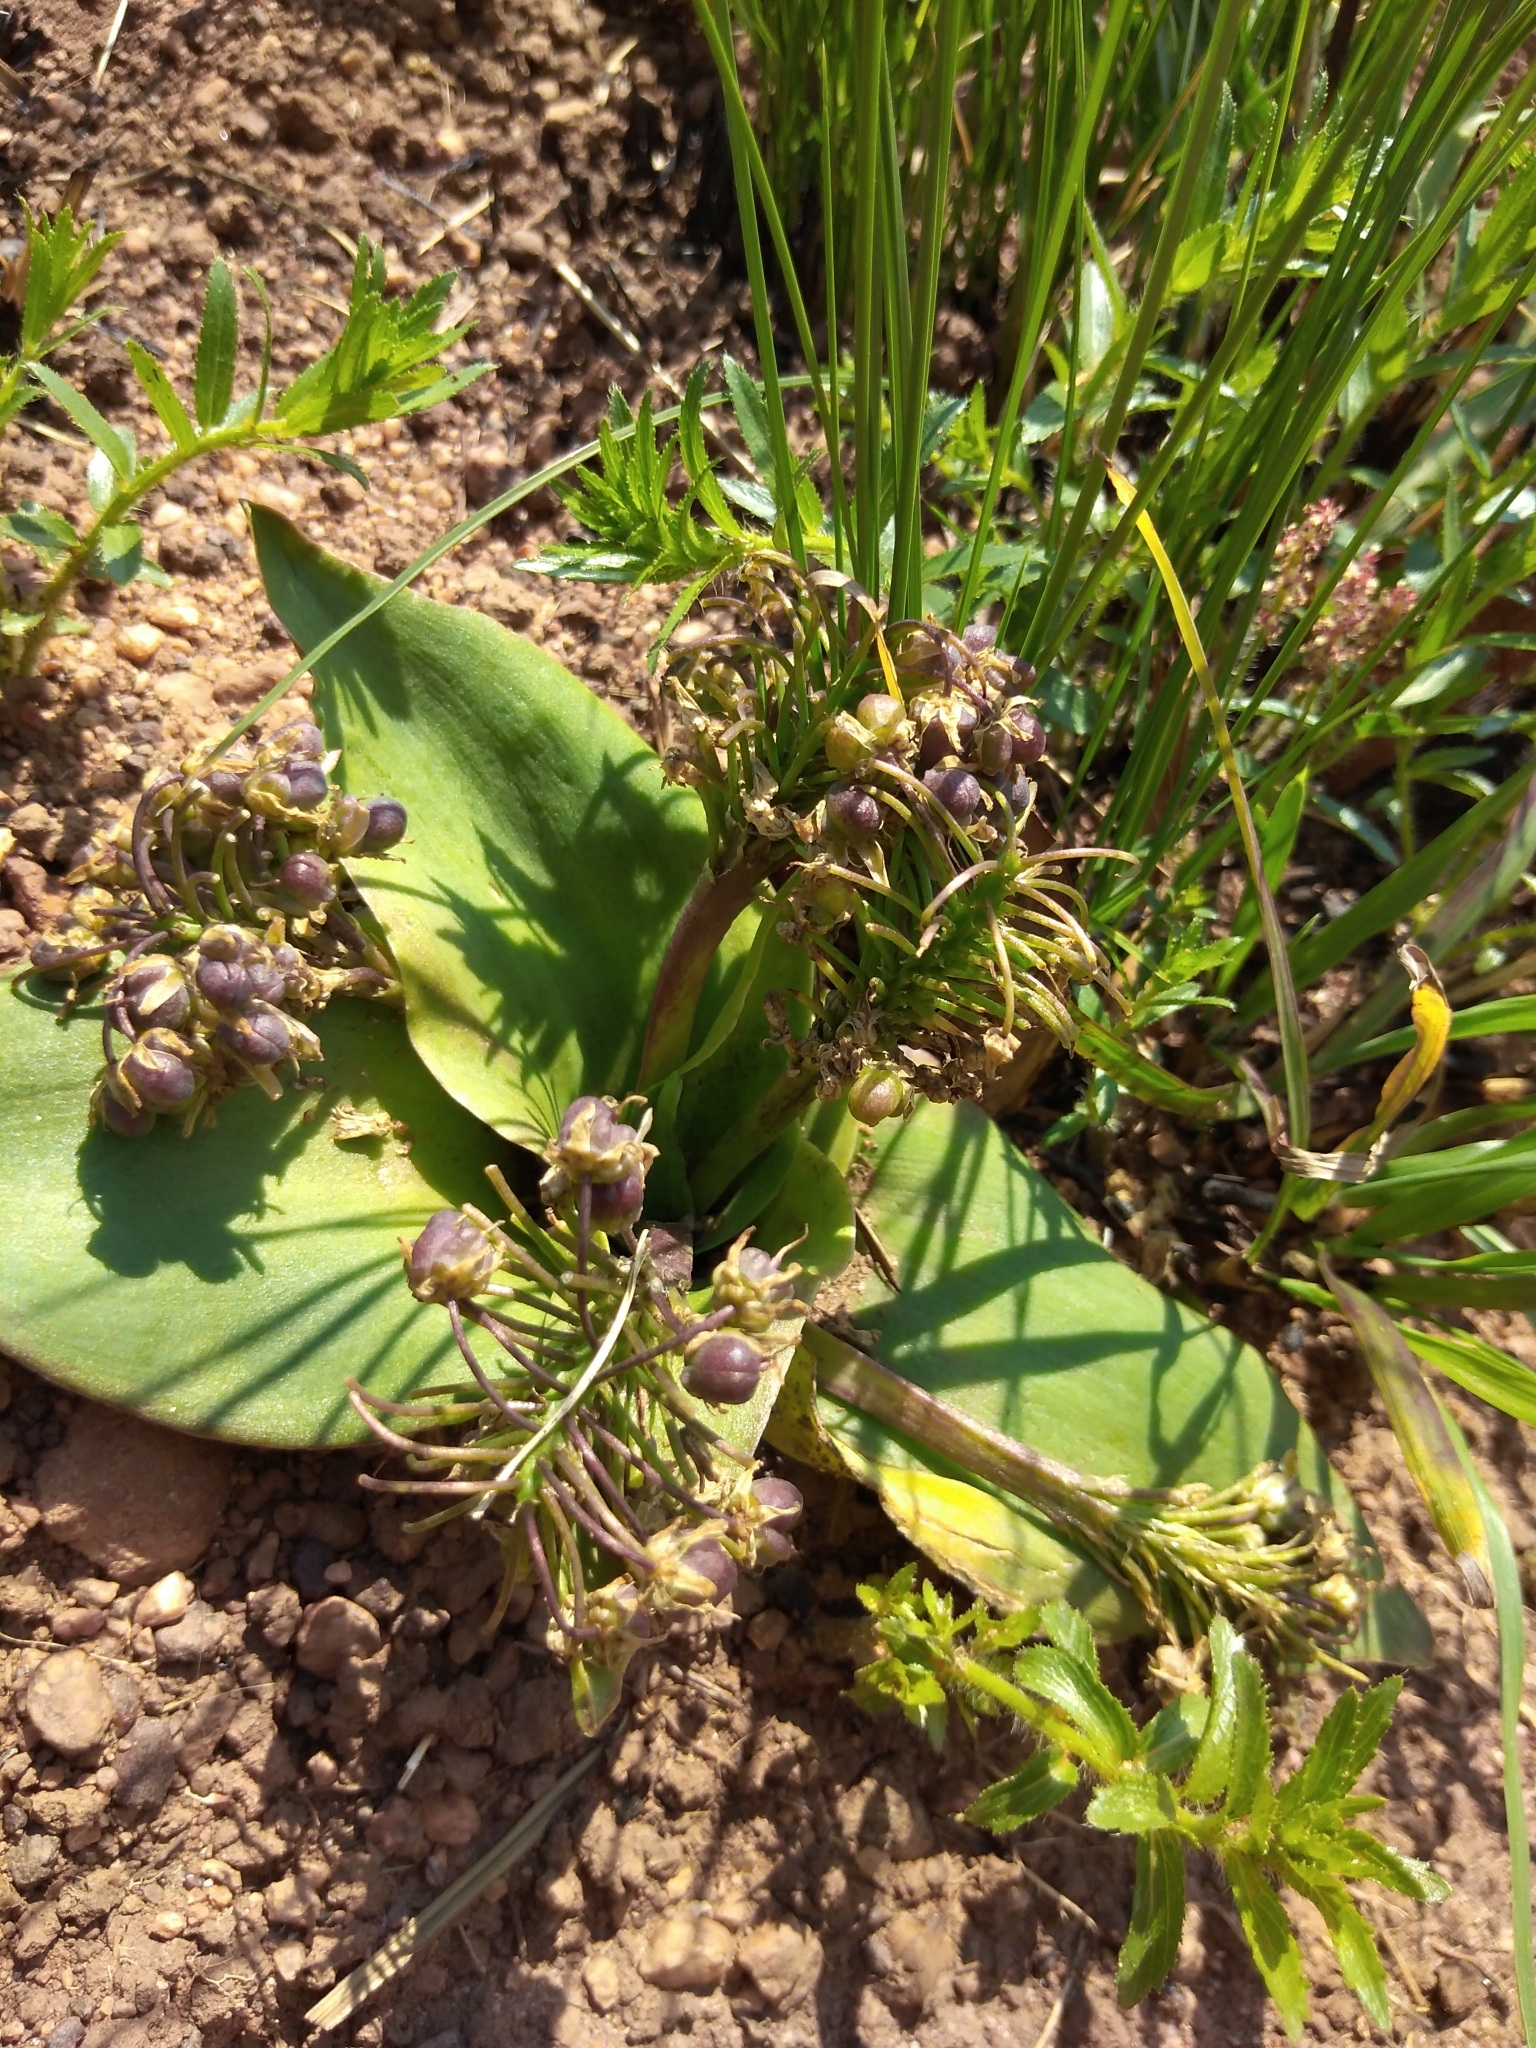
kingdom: Plantae
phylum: Tracheophyta
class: Liliopsida
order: Asparagales
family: Asparagaceae
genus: Ledebouria
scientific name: Ledebouria ovatifolia
